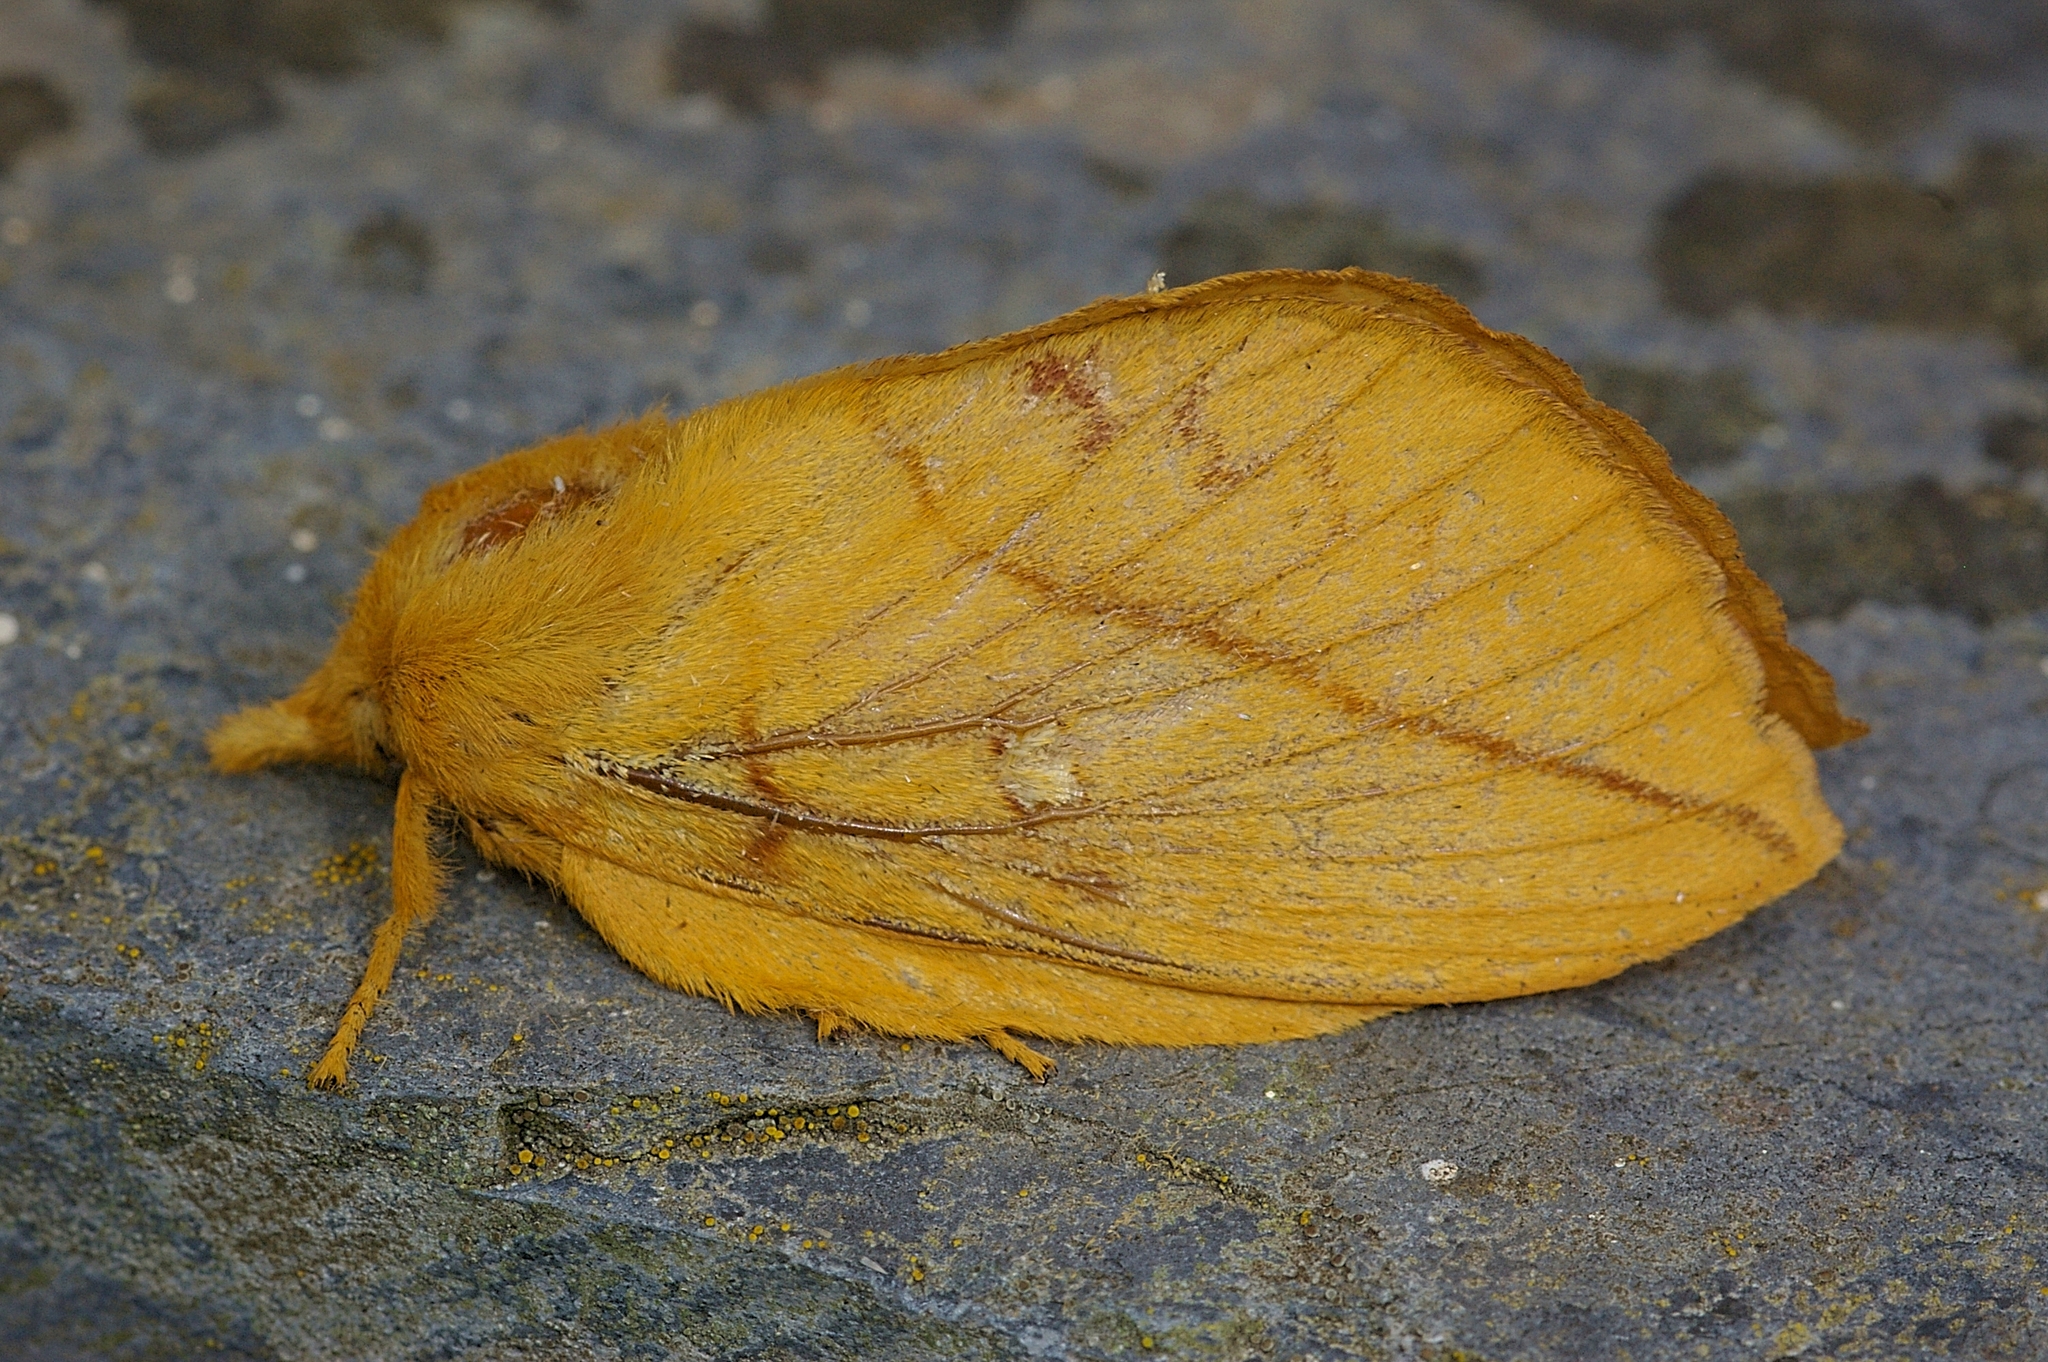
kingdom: Animalia
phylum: Arthropoda
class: Insecta
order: Lepidoptera
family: Lasiocampidae
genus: Euthrix
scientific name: Euthrix potatoria
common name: Drinker
